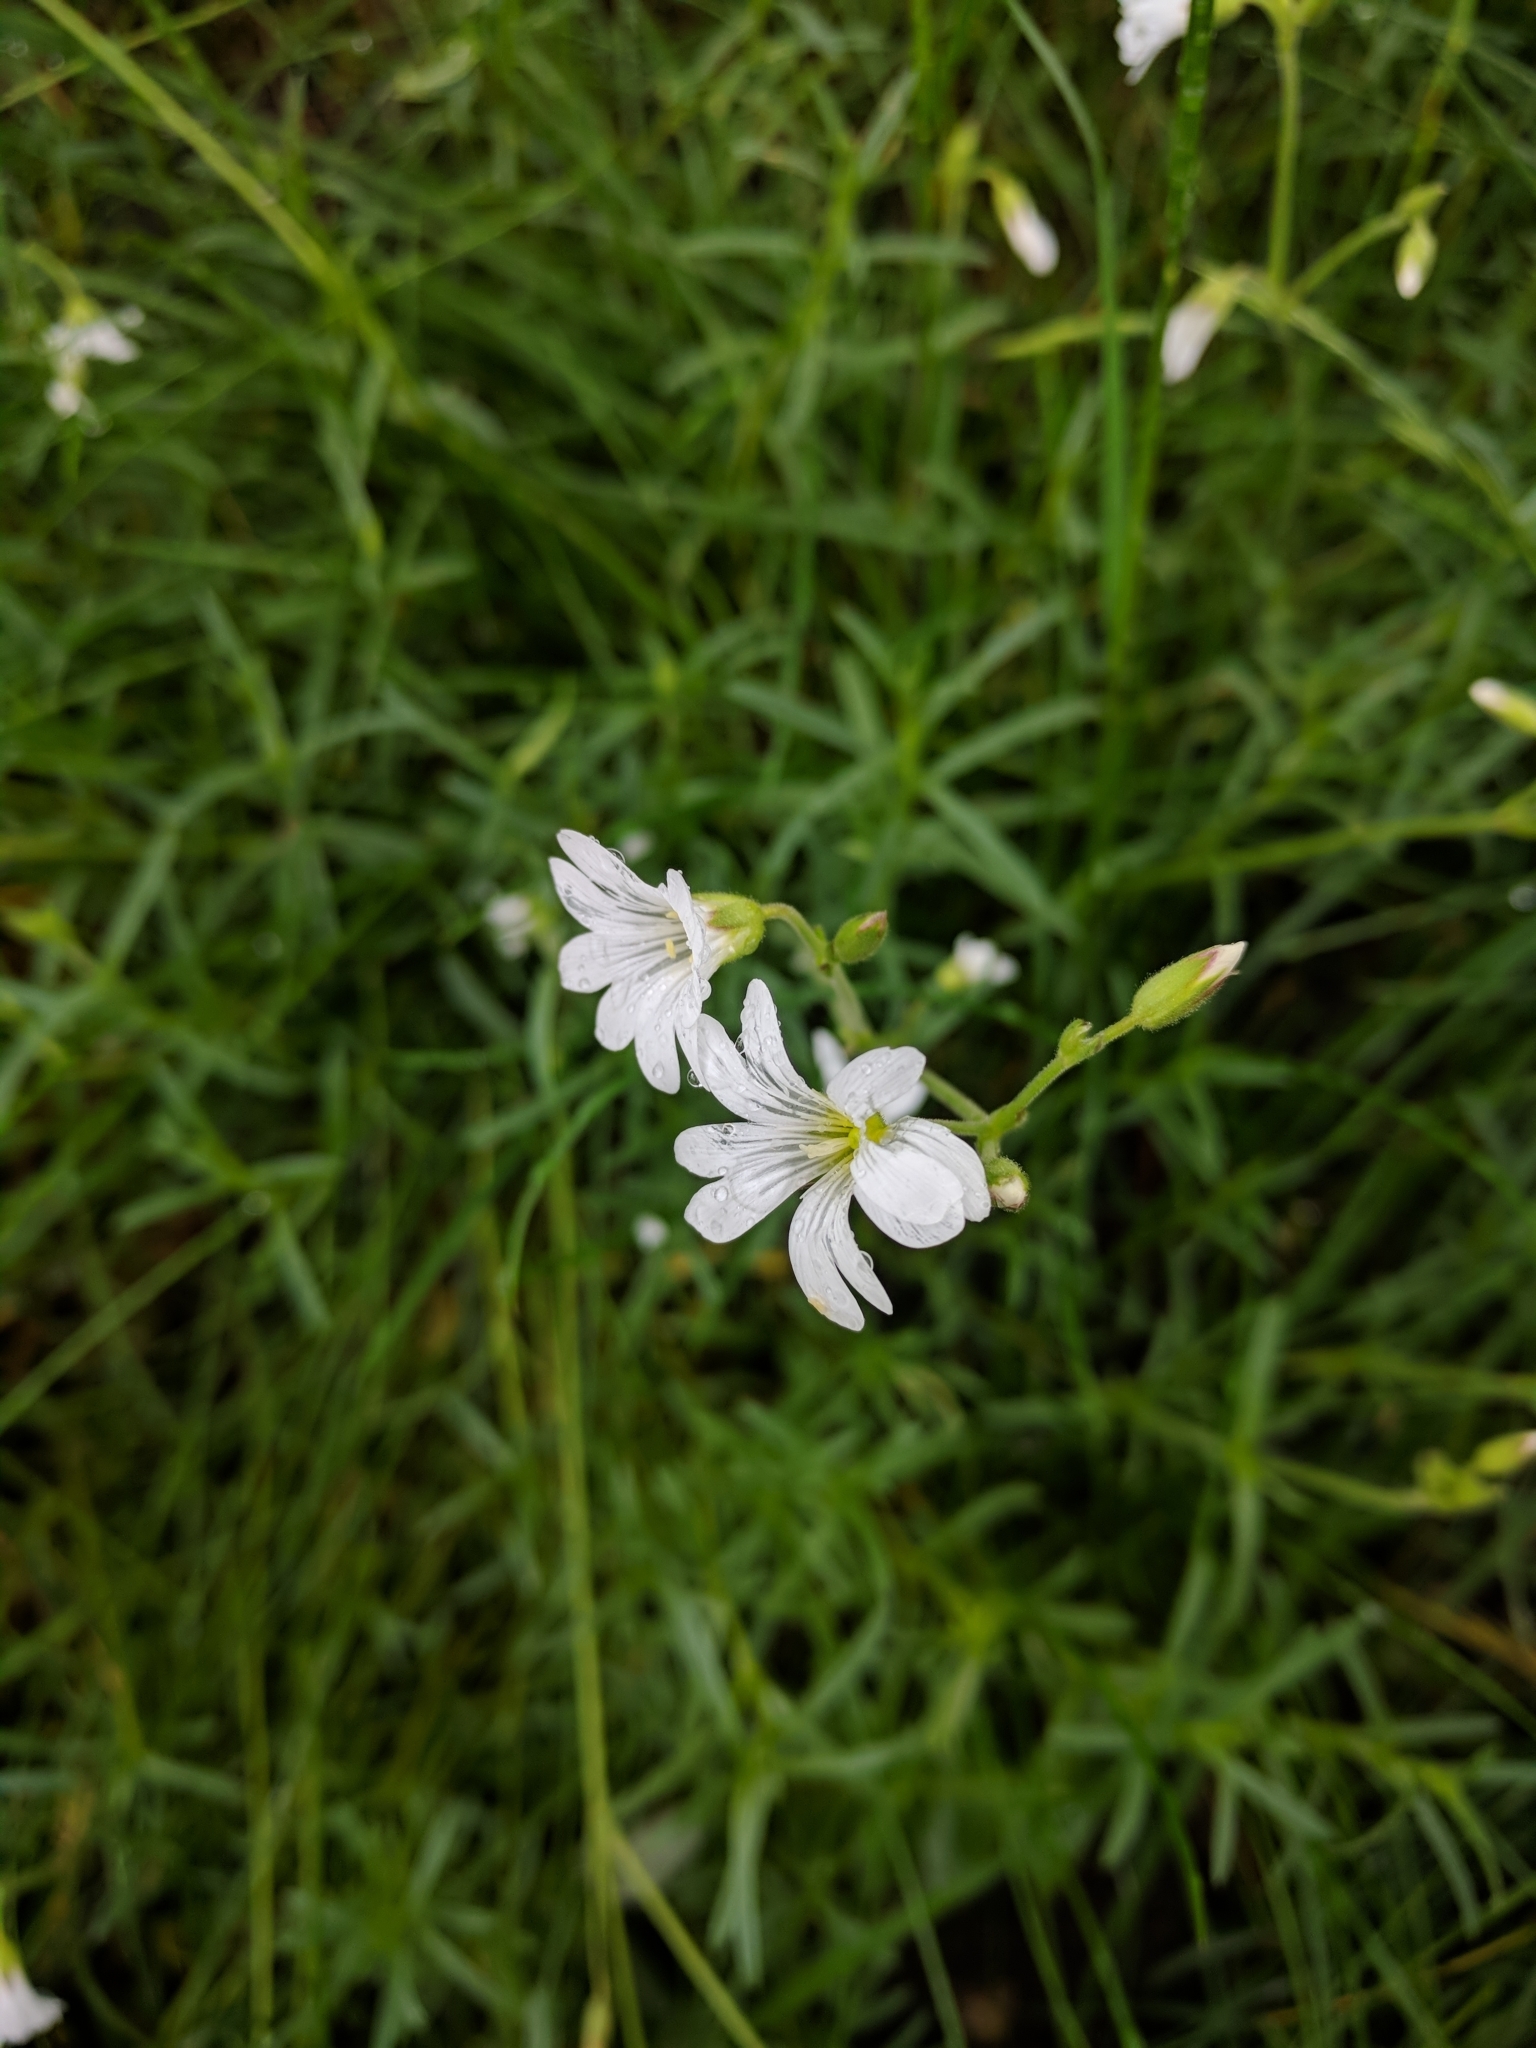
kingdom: Plantae
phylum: Tracheophyta
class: Magnoliopsida
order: Caryophyllales
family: Caryophyllaceae
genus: Cerastium
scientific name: Cerastium arvense
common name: Field mouse-ear
